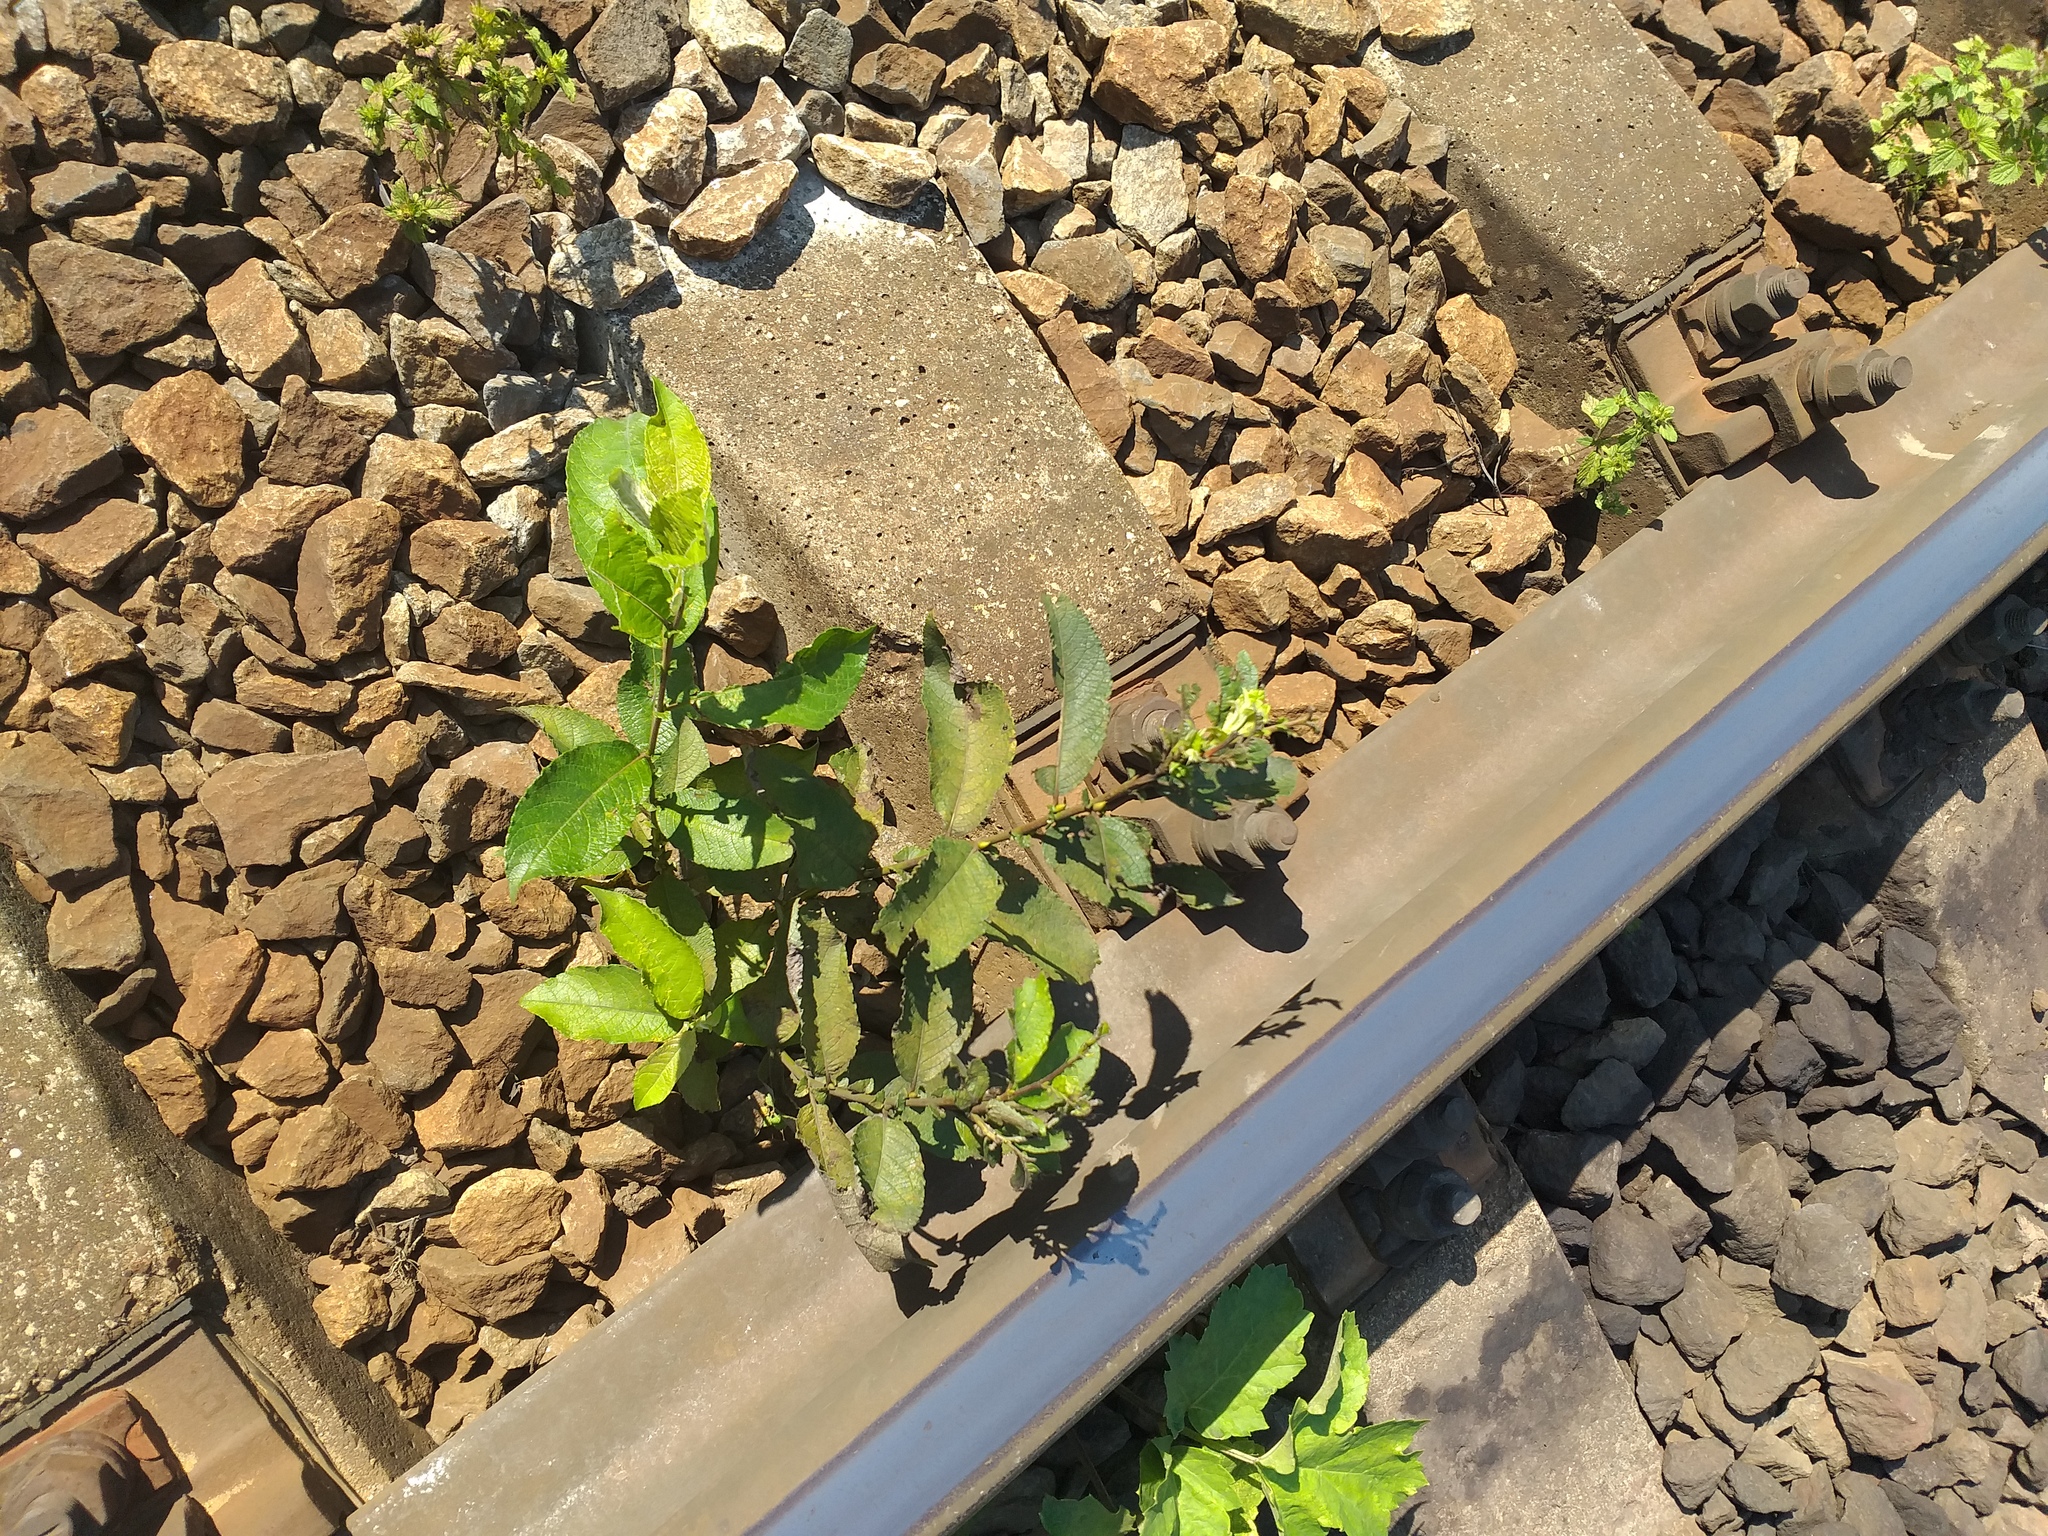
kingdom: Plantae
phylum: Tracheophyta
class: Magnoliopsida
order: Malpighiales
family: Salicaceae
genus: Salix
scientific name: Salix caprea
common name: Goat willow
